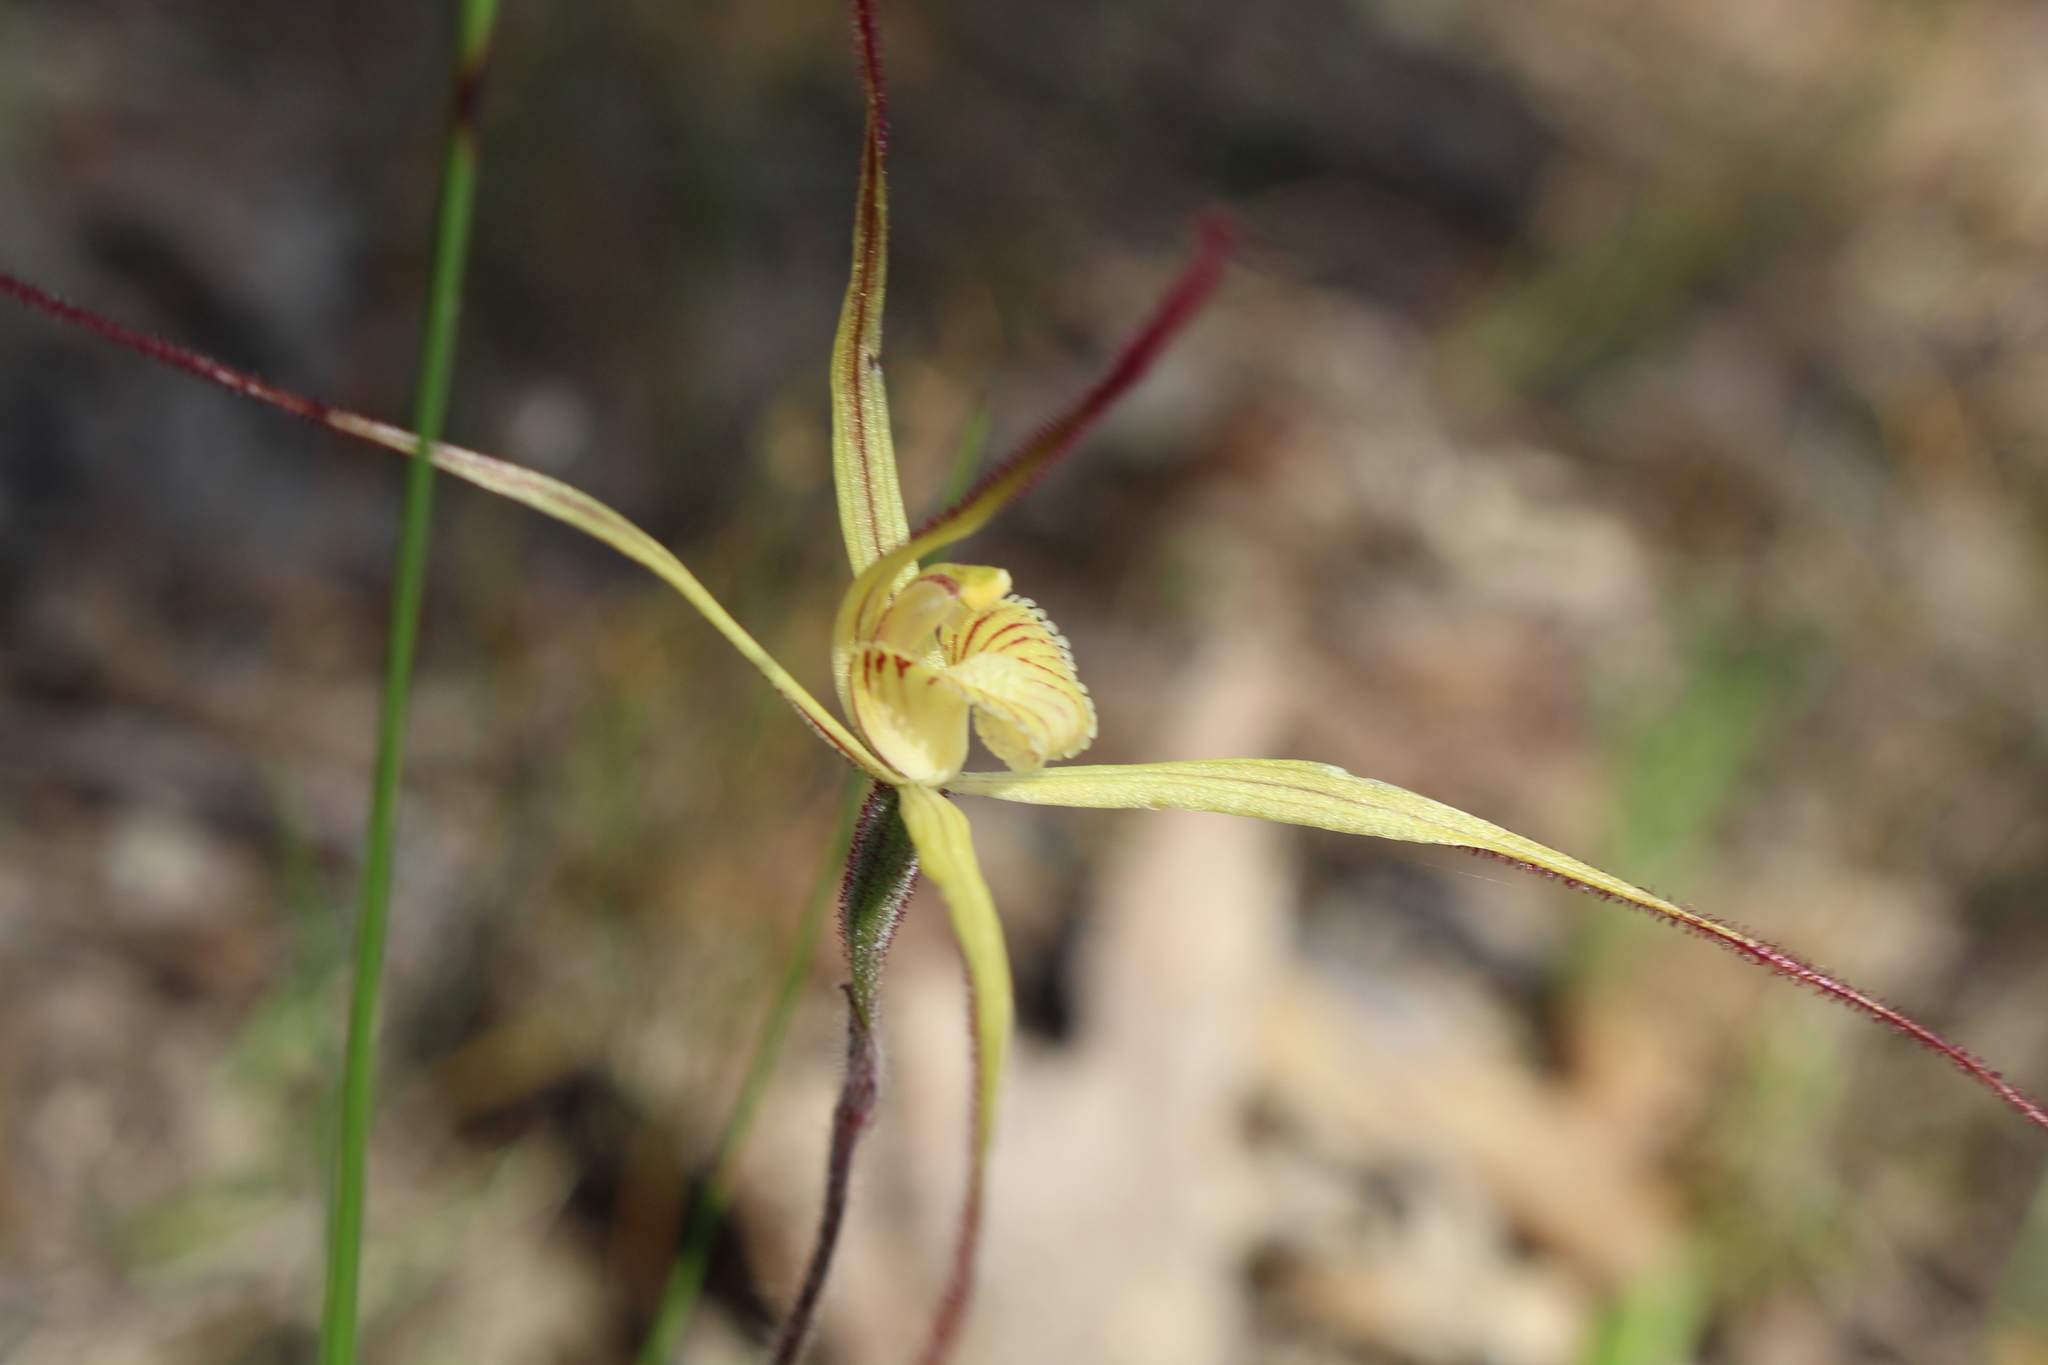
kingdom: Plantae
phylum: Tracheophyta
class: Liliopsida
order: Asparagales
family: Orchidaceae
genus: Caladenia
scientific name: Caladenia straminichila
